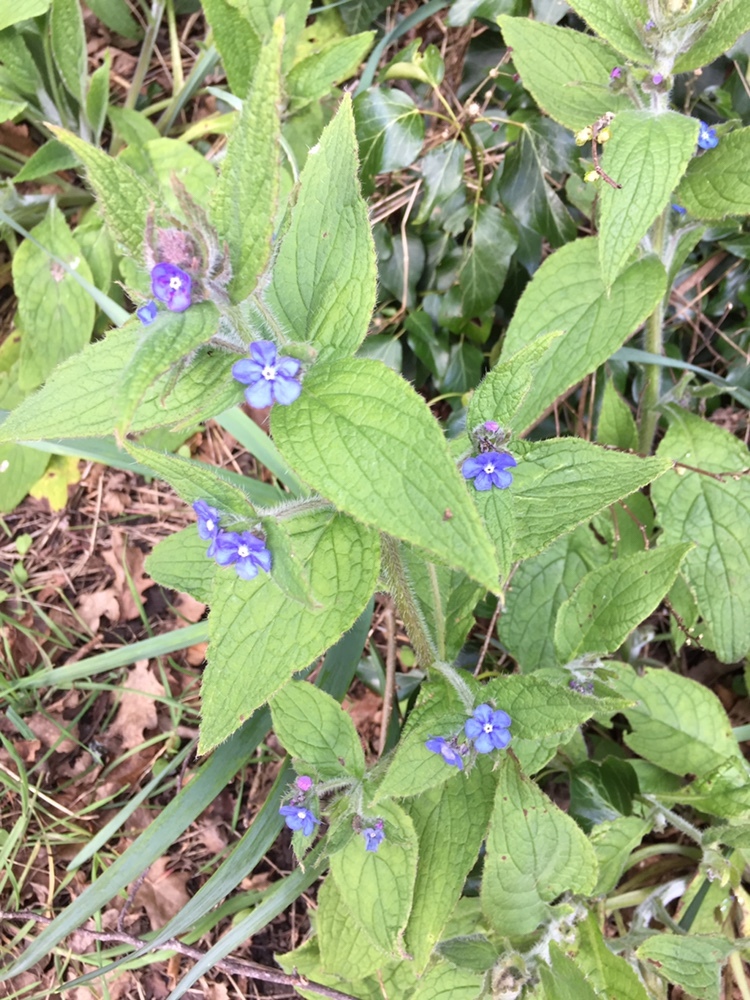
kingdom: Plantae
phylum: Tracheophyta
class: Magnoliopsida
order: Boraginales
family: Boraginaceae
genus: Pentaglottis
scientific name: Pentaglottis sempervirens
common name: Green alkanet
